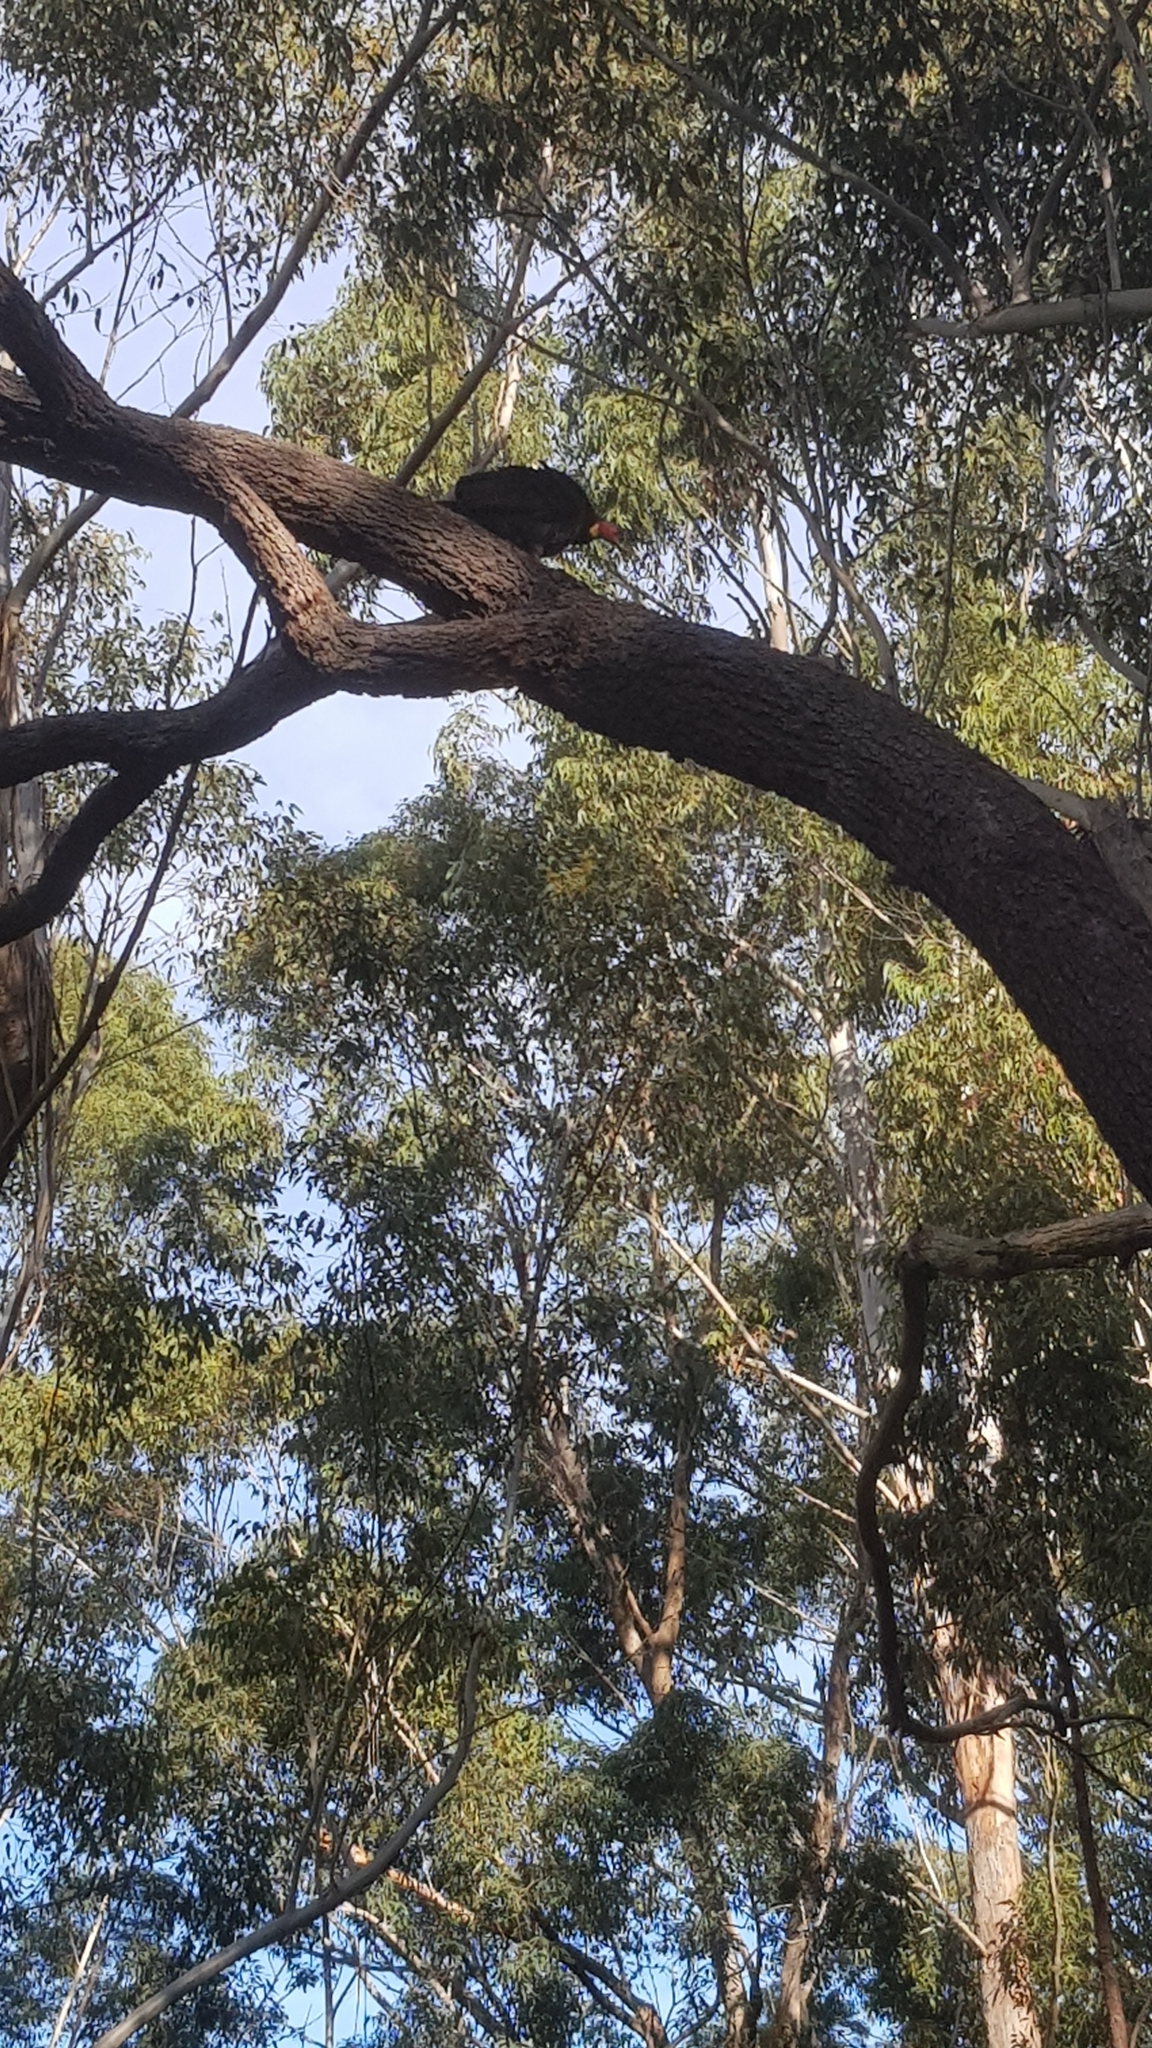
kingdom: Animalia
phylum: Chordata
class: Aves
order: Galliformes
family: Megapodiidae
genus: Alectura
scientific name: Alectura lathami
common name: Australian brushturkey
